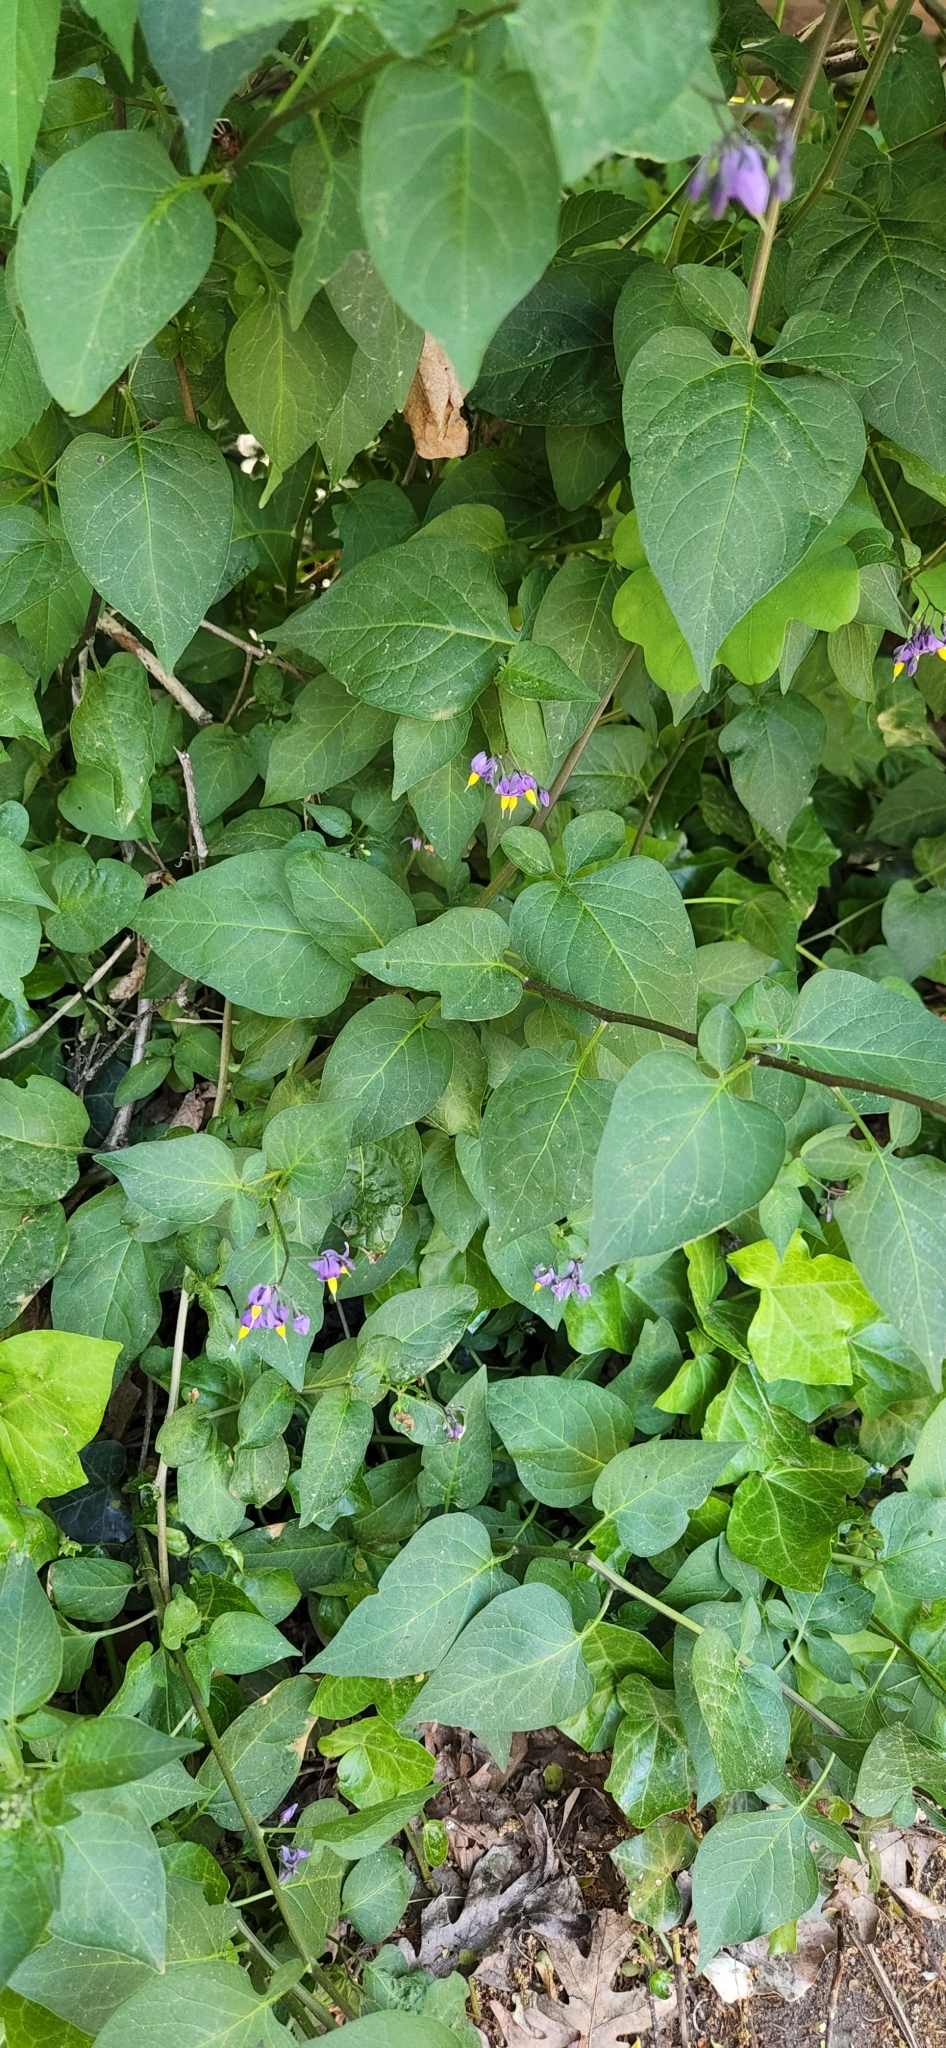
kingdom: Plantae
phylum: Tracheophyta
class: Magnoliopsida
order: Solanales
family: Solanaceae
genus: Solanum
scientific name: Solanum dulcamara
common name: Climbing nightshade
